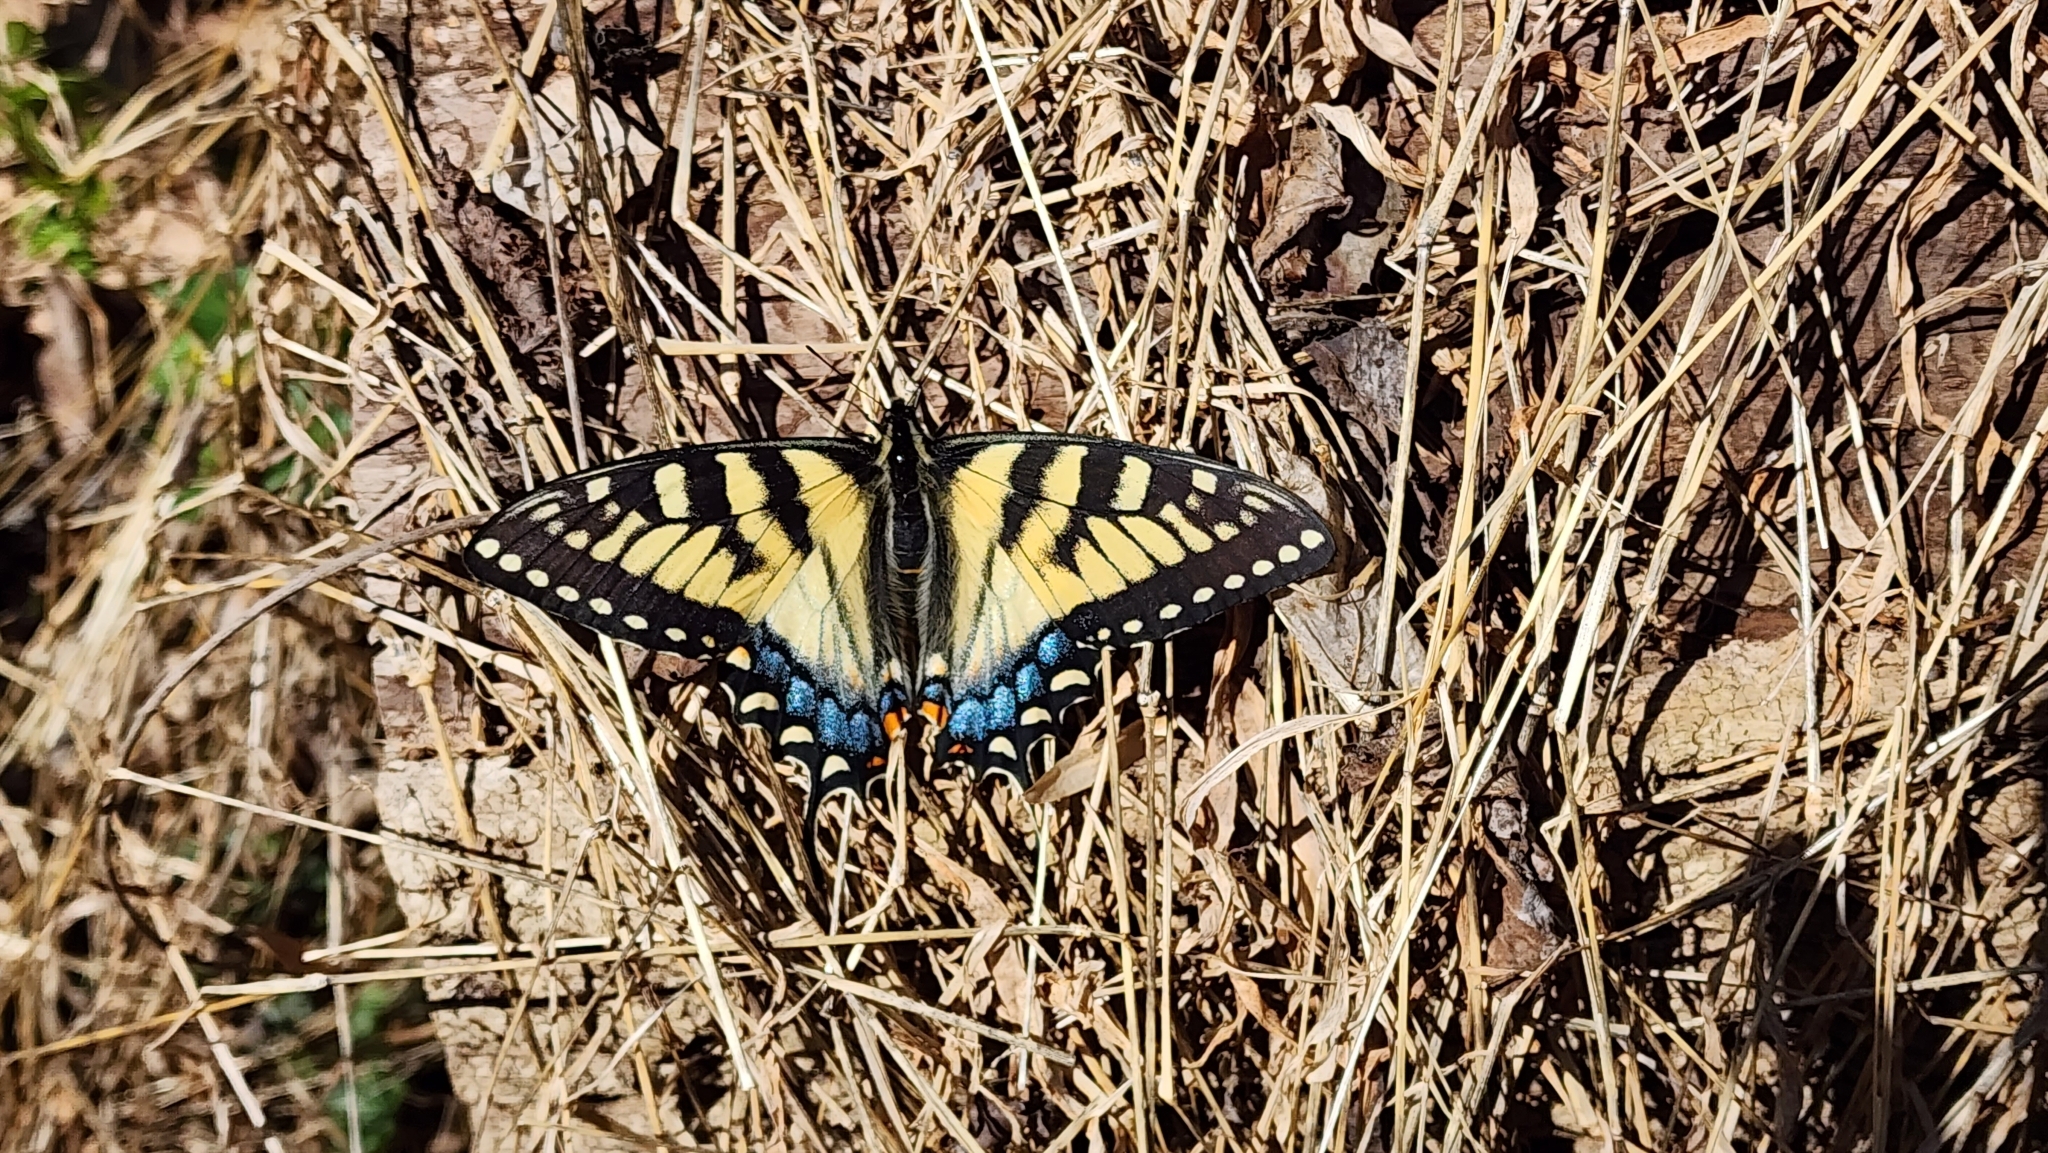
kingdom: Animalia
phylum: Arthropoda
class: Insecta
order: Lepidoptera
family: Papilionidae
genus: Papilio
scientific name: Papilio glaucus
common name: Tiger swallowtail
